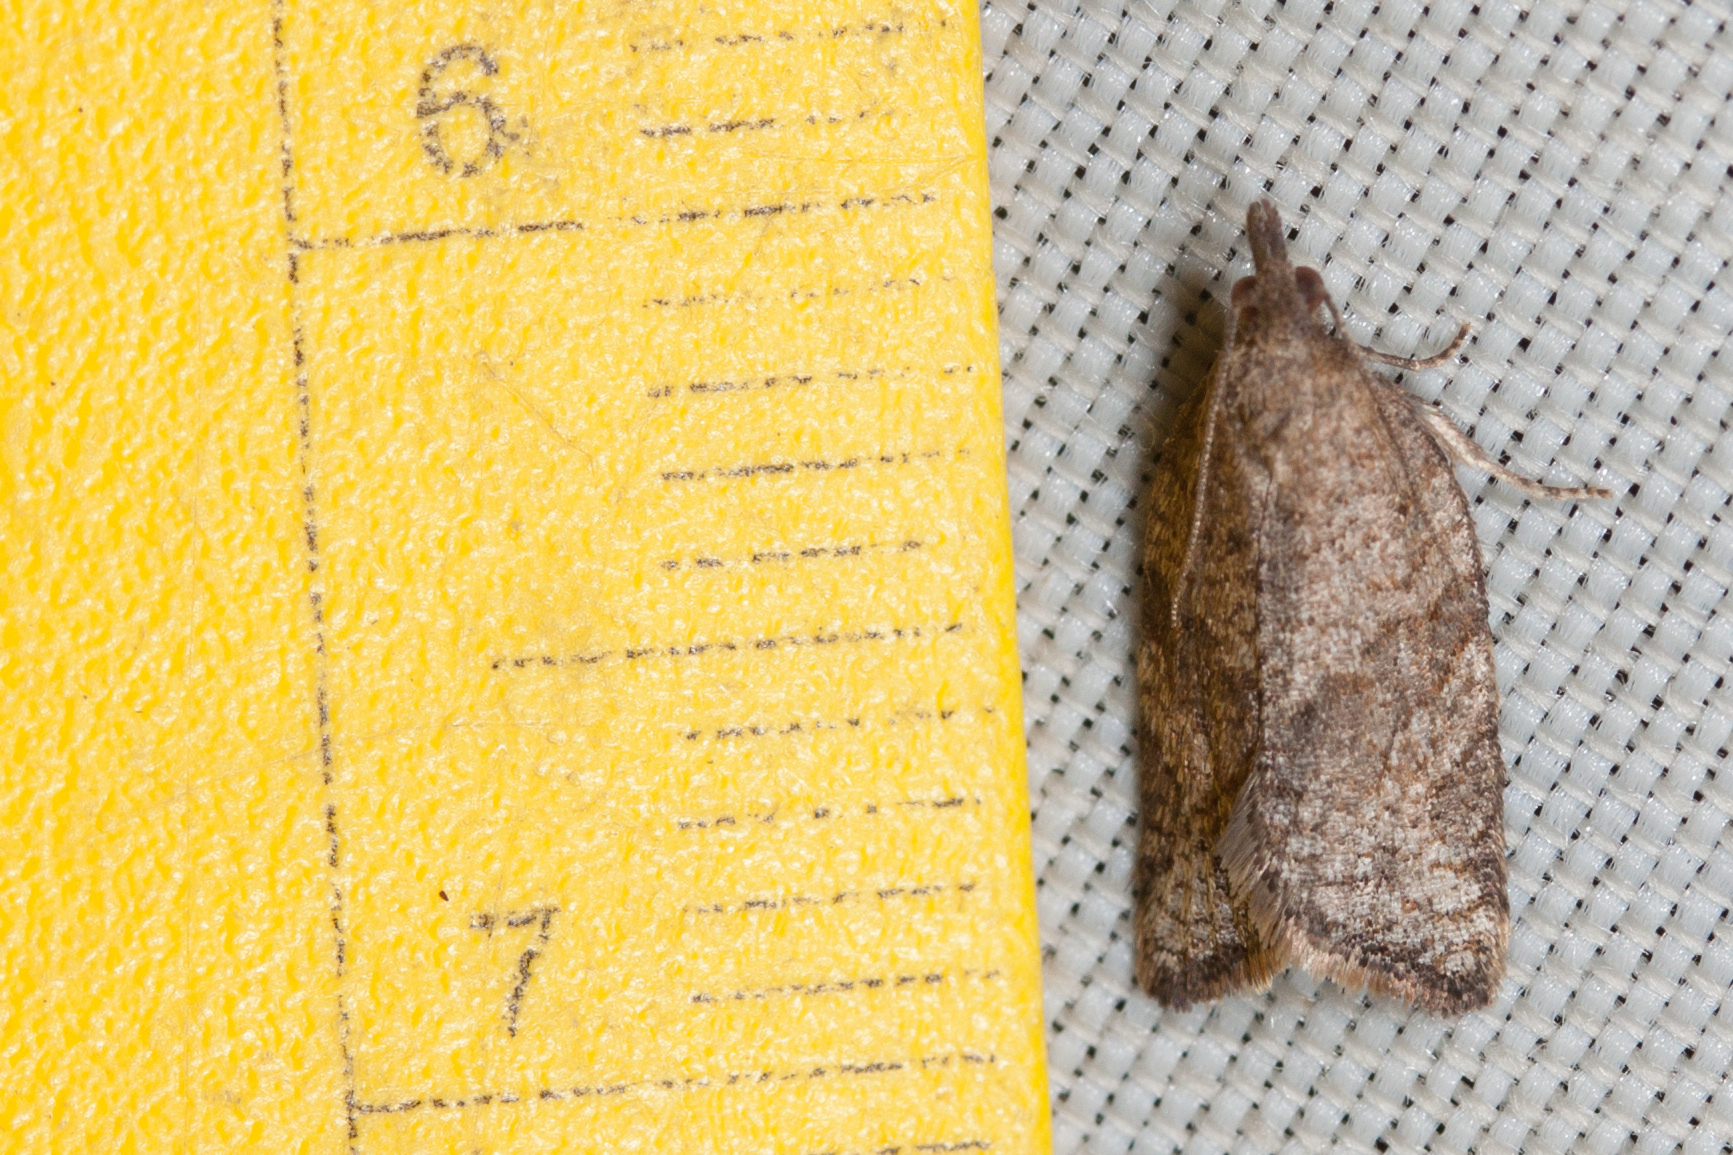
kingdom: Animalia
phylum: Arthropoda
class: Insecta
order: Lepidoptera
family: Tortricidae
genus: Argyrotaenia
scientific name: Argyrotaenia franciscana
